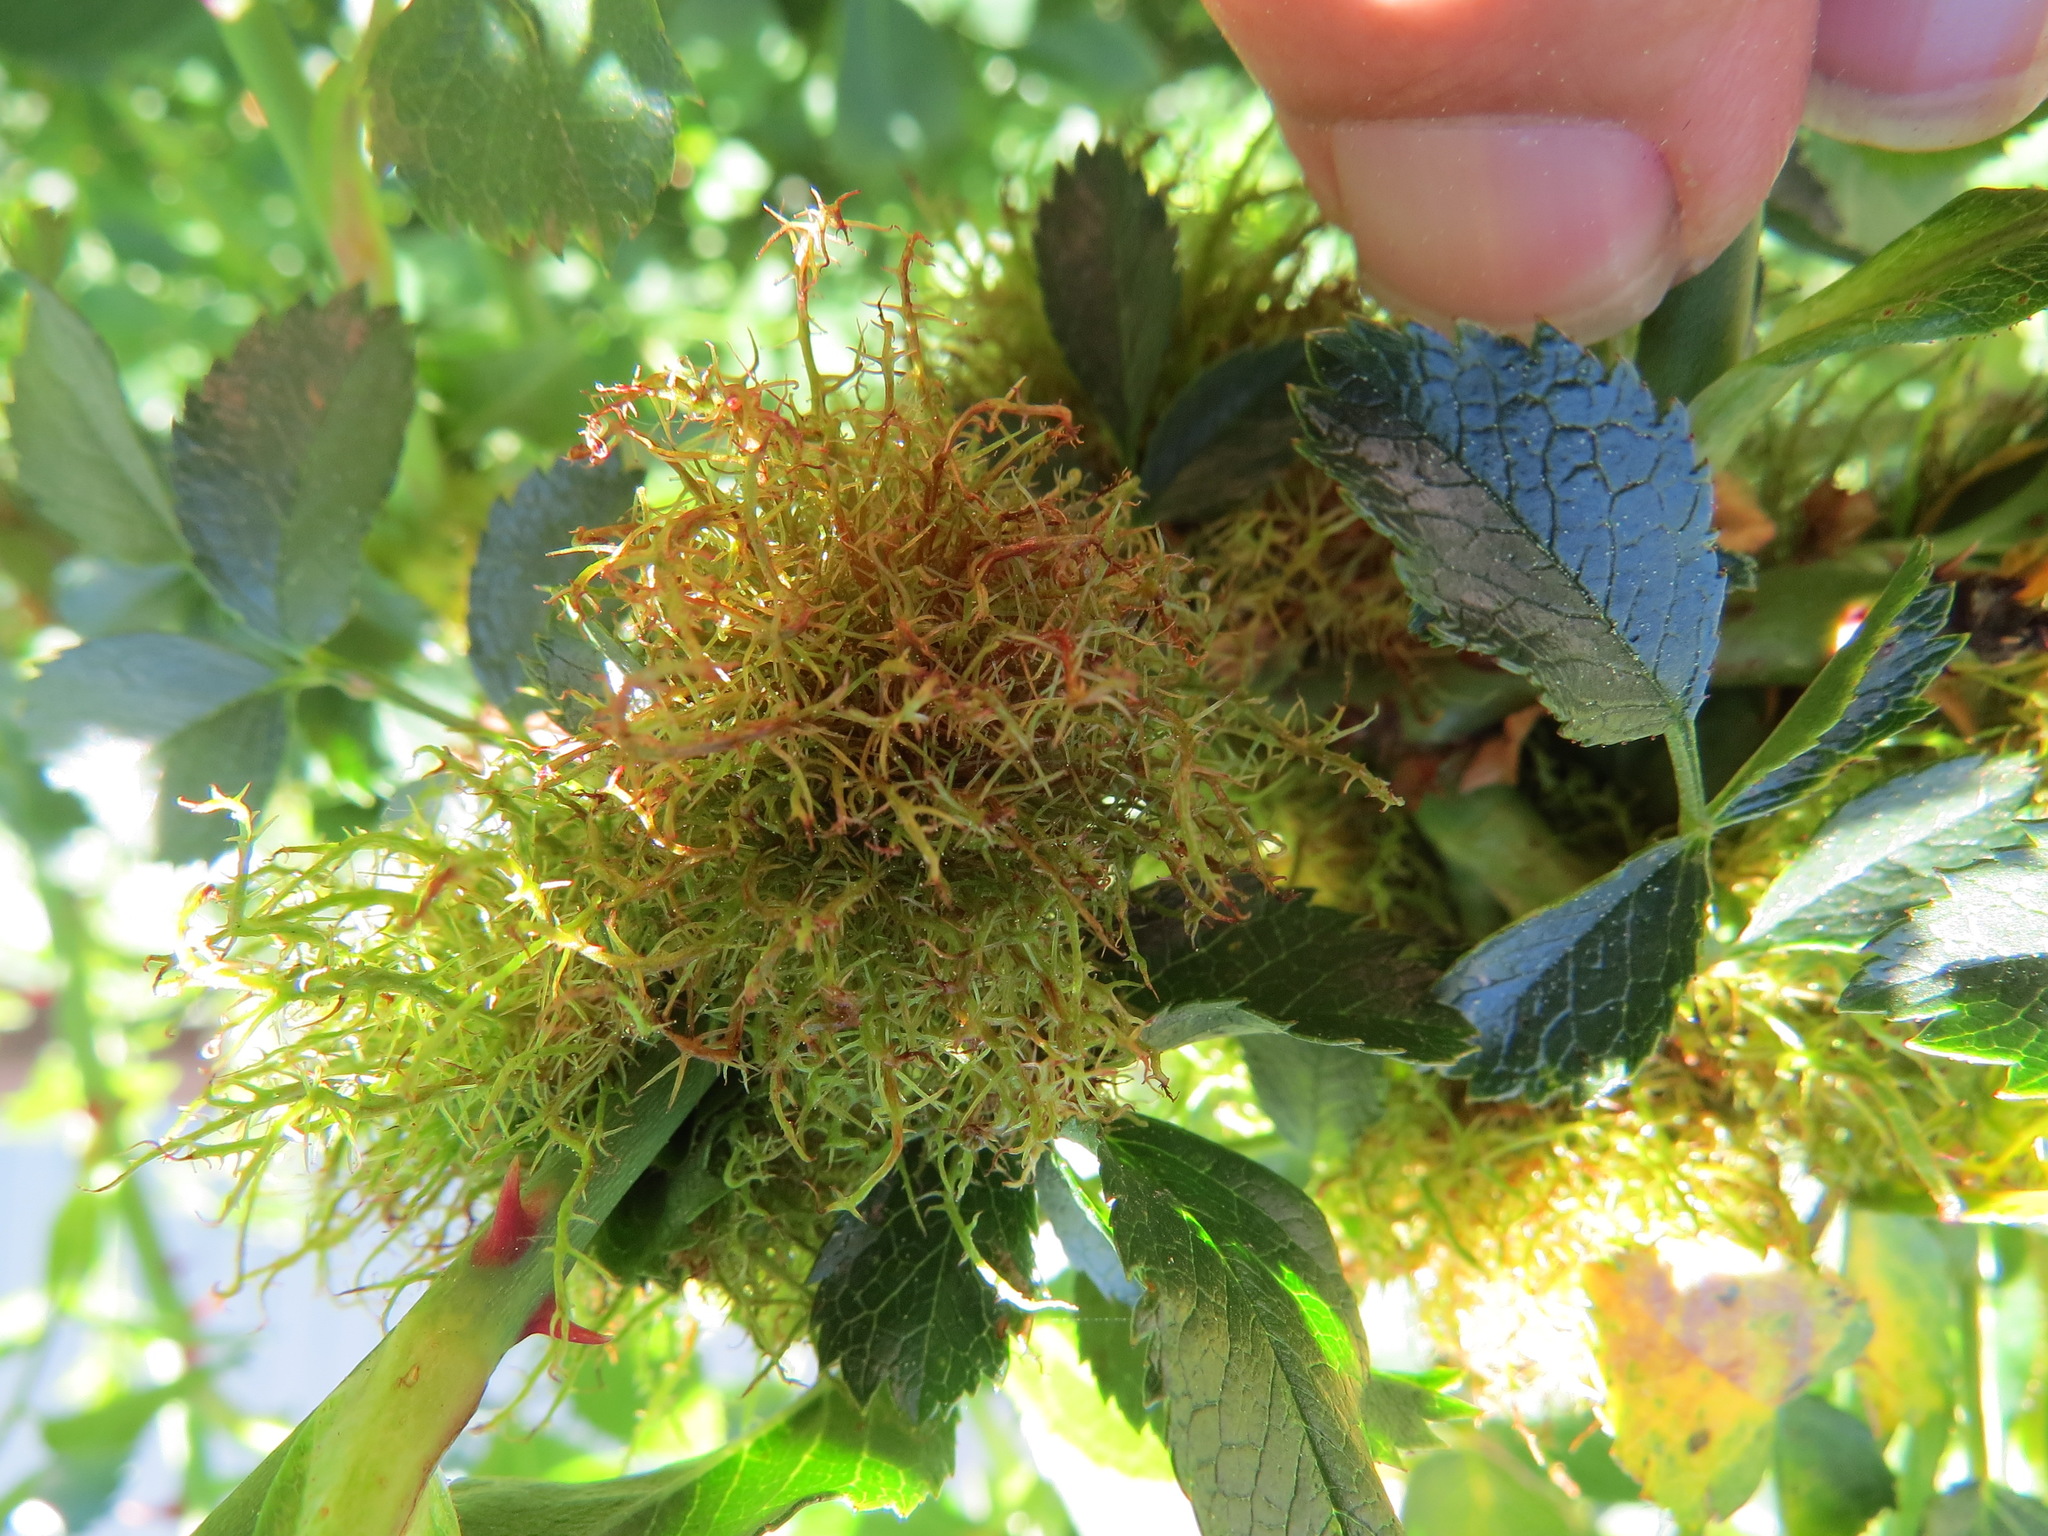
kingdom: Animalia
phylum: Arthropoda
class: Insecta
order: Hymenoptera
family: Cynipidae
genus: Diplolepis
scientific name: Diplolepis rosae
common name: Bedeguar gall
